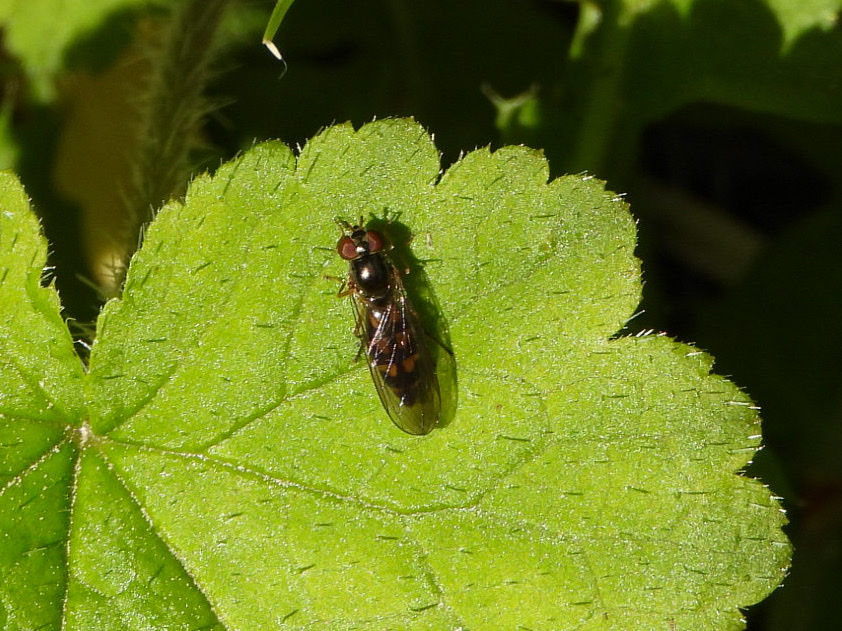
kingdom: Animalia
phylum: Arthropoda
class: Insecta
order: Diptera
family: Syrphidae
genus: Melanostoma
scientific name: Melanostoma mellina
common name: Hover fly
